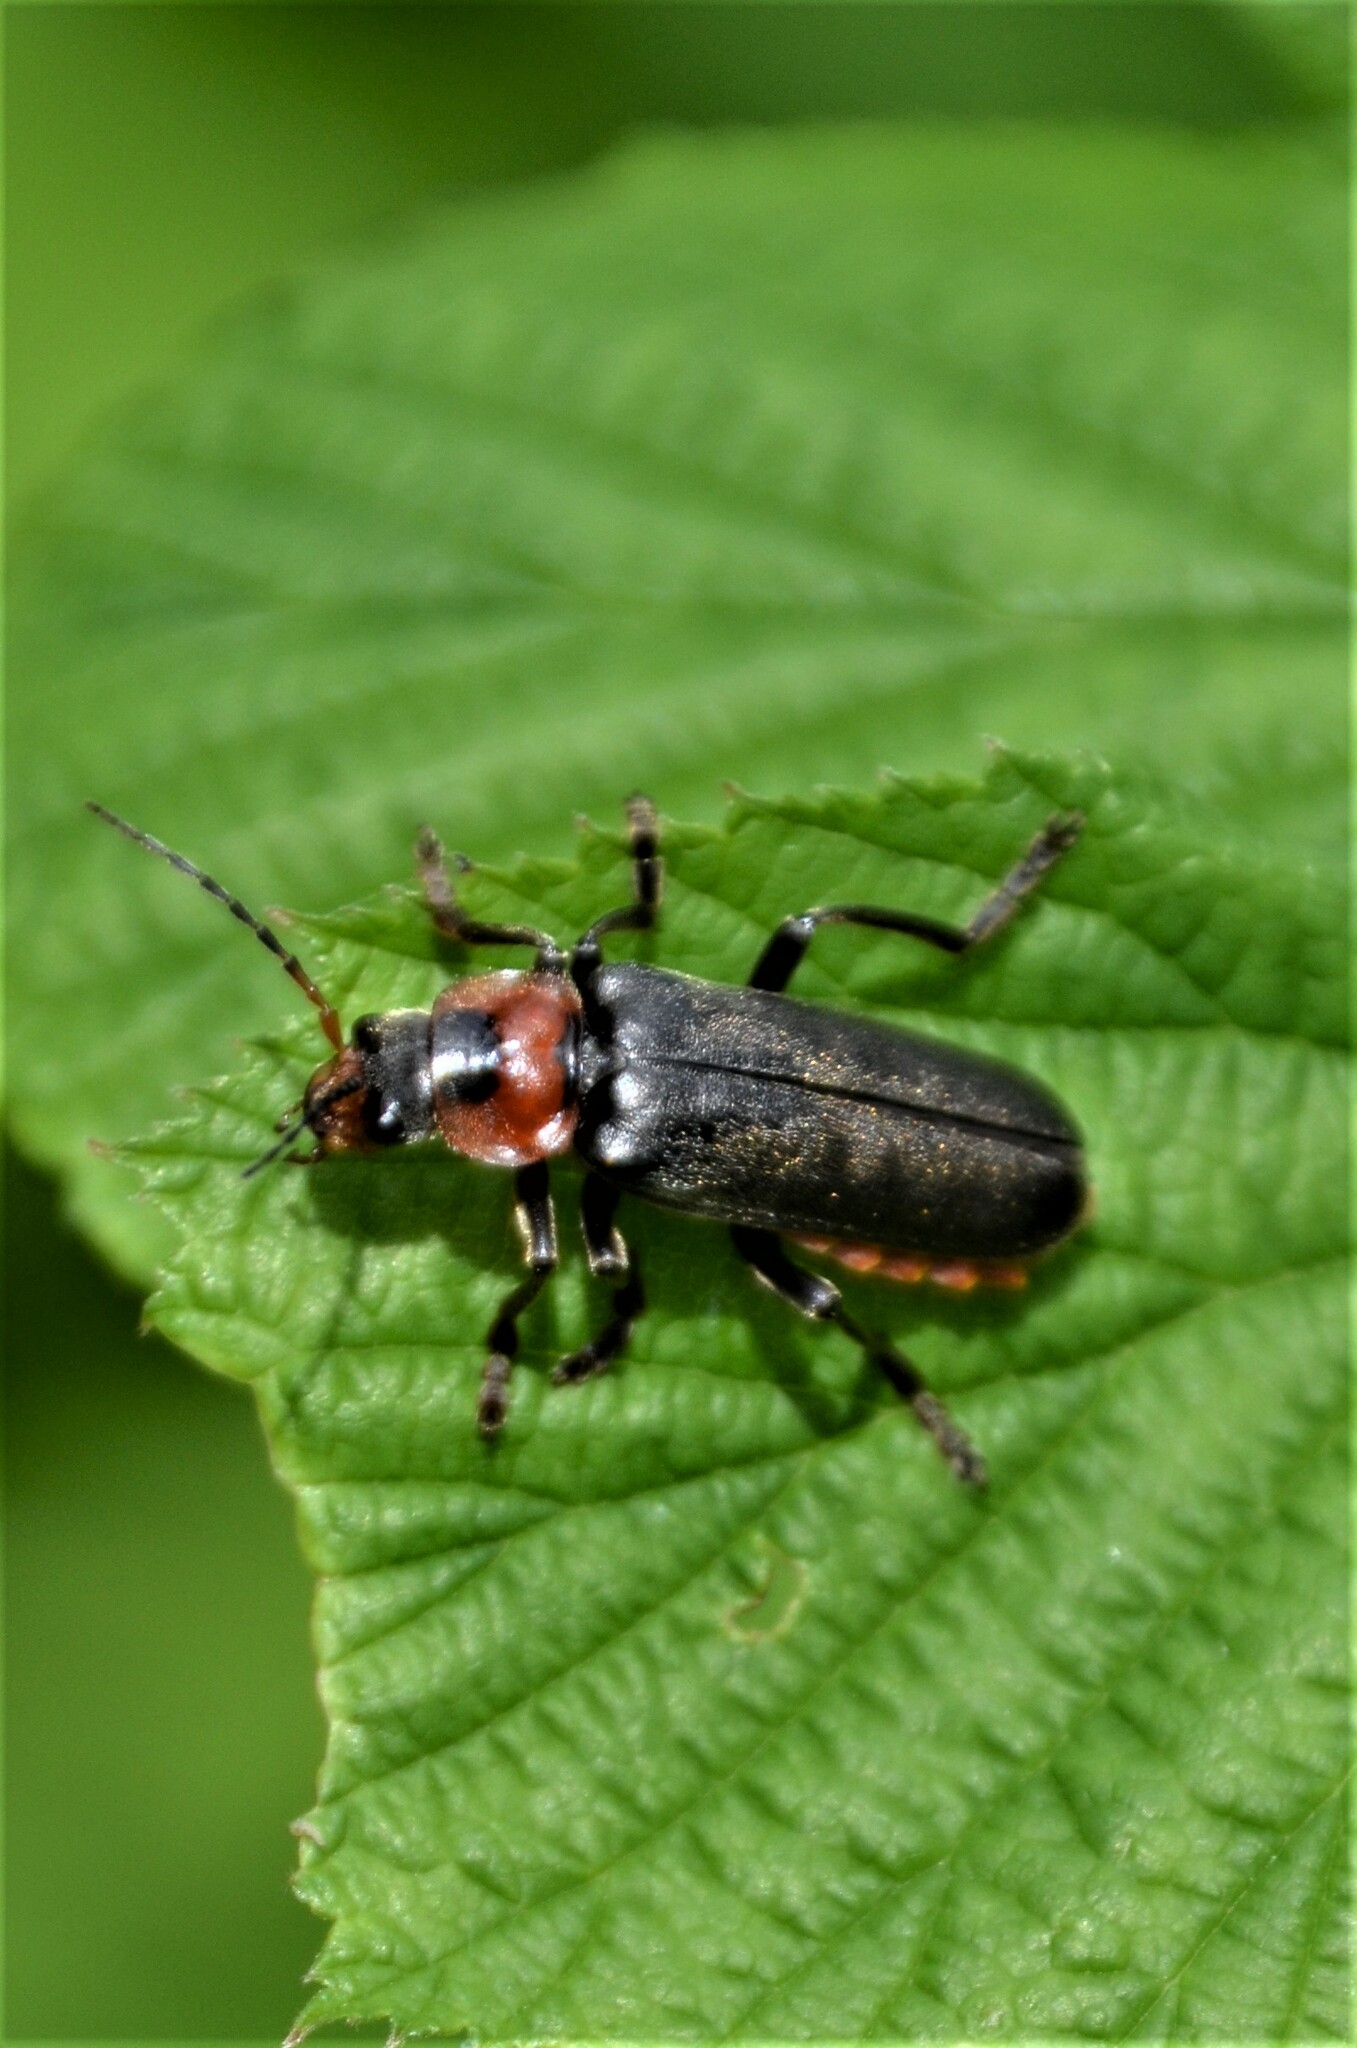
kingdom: Animalia
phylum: Arthropoda
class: Insecta
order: Coleoptera
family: Cantharidae
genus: Cantharis
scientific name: Cantharis fusca
